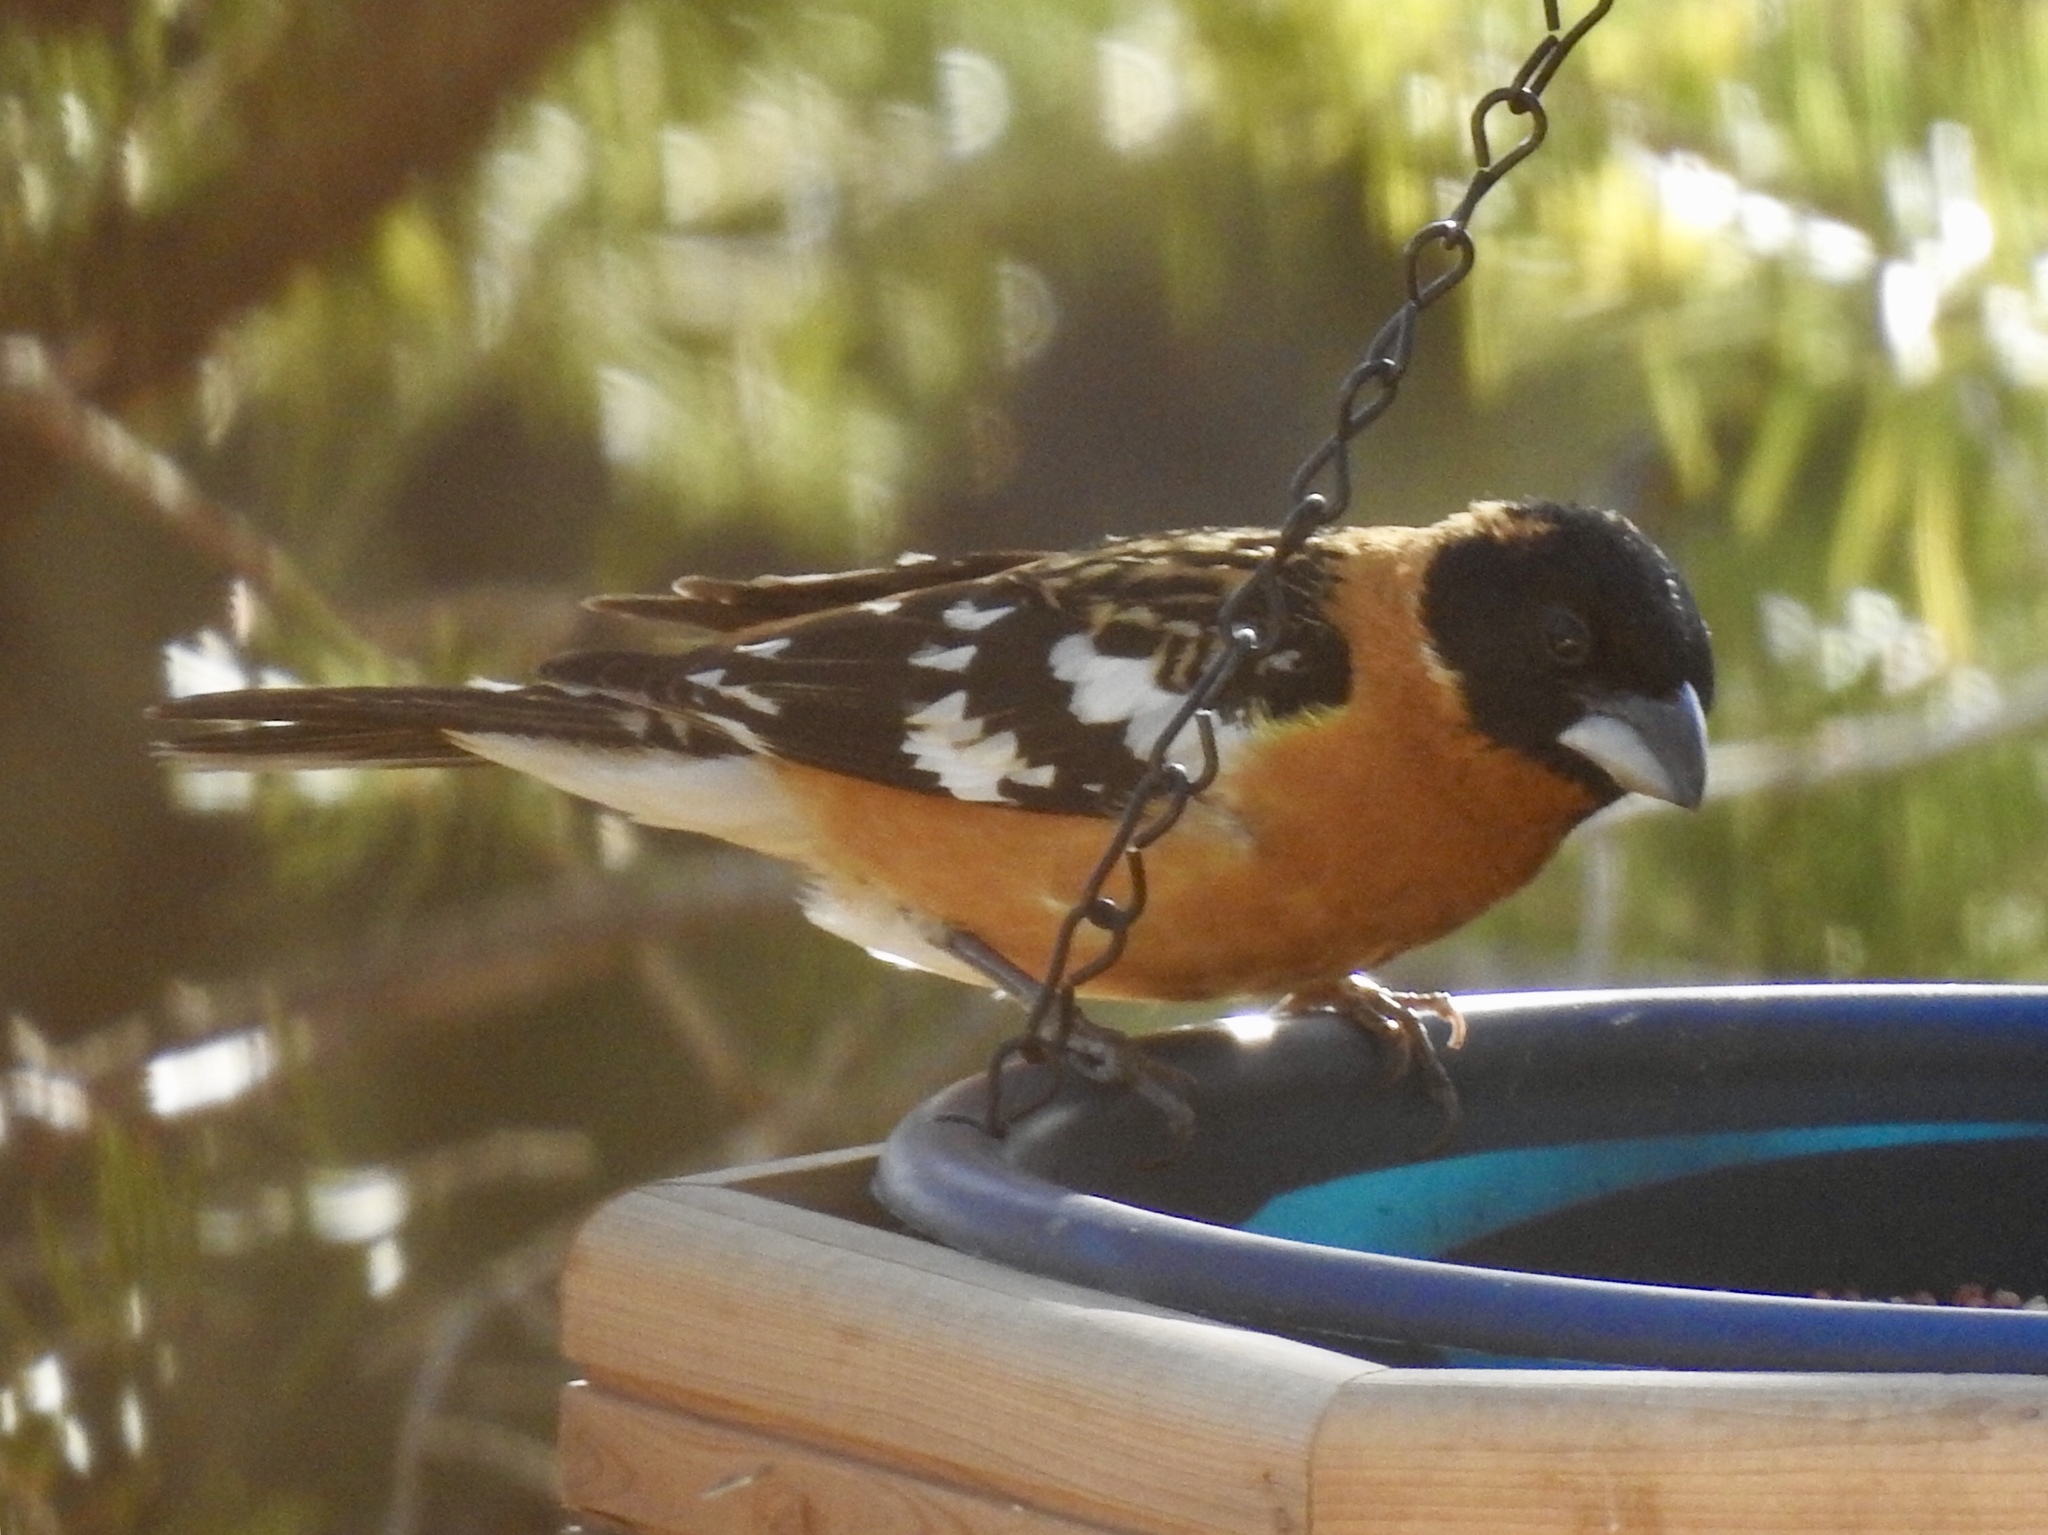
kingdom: Animalia
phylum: Chordata
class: Aves
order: Passeriformes
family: Cardinalidae
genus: Pheucticus
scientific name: Pheucticus melanocephalus
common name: Black-headed grosbeak
